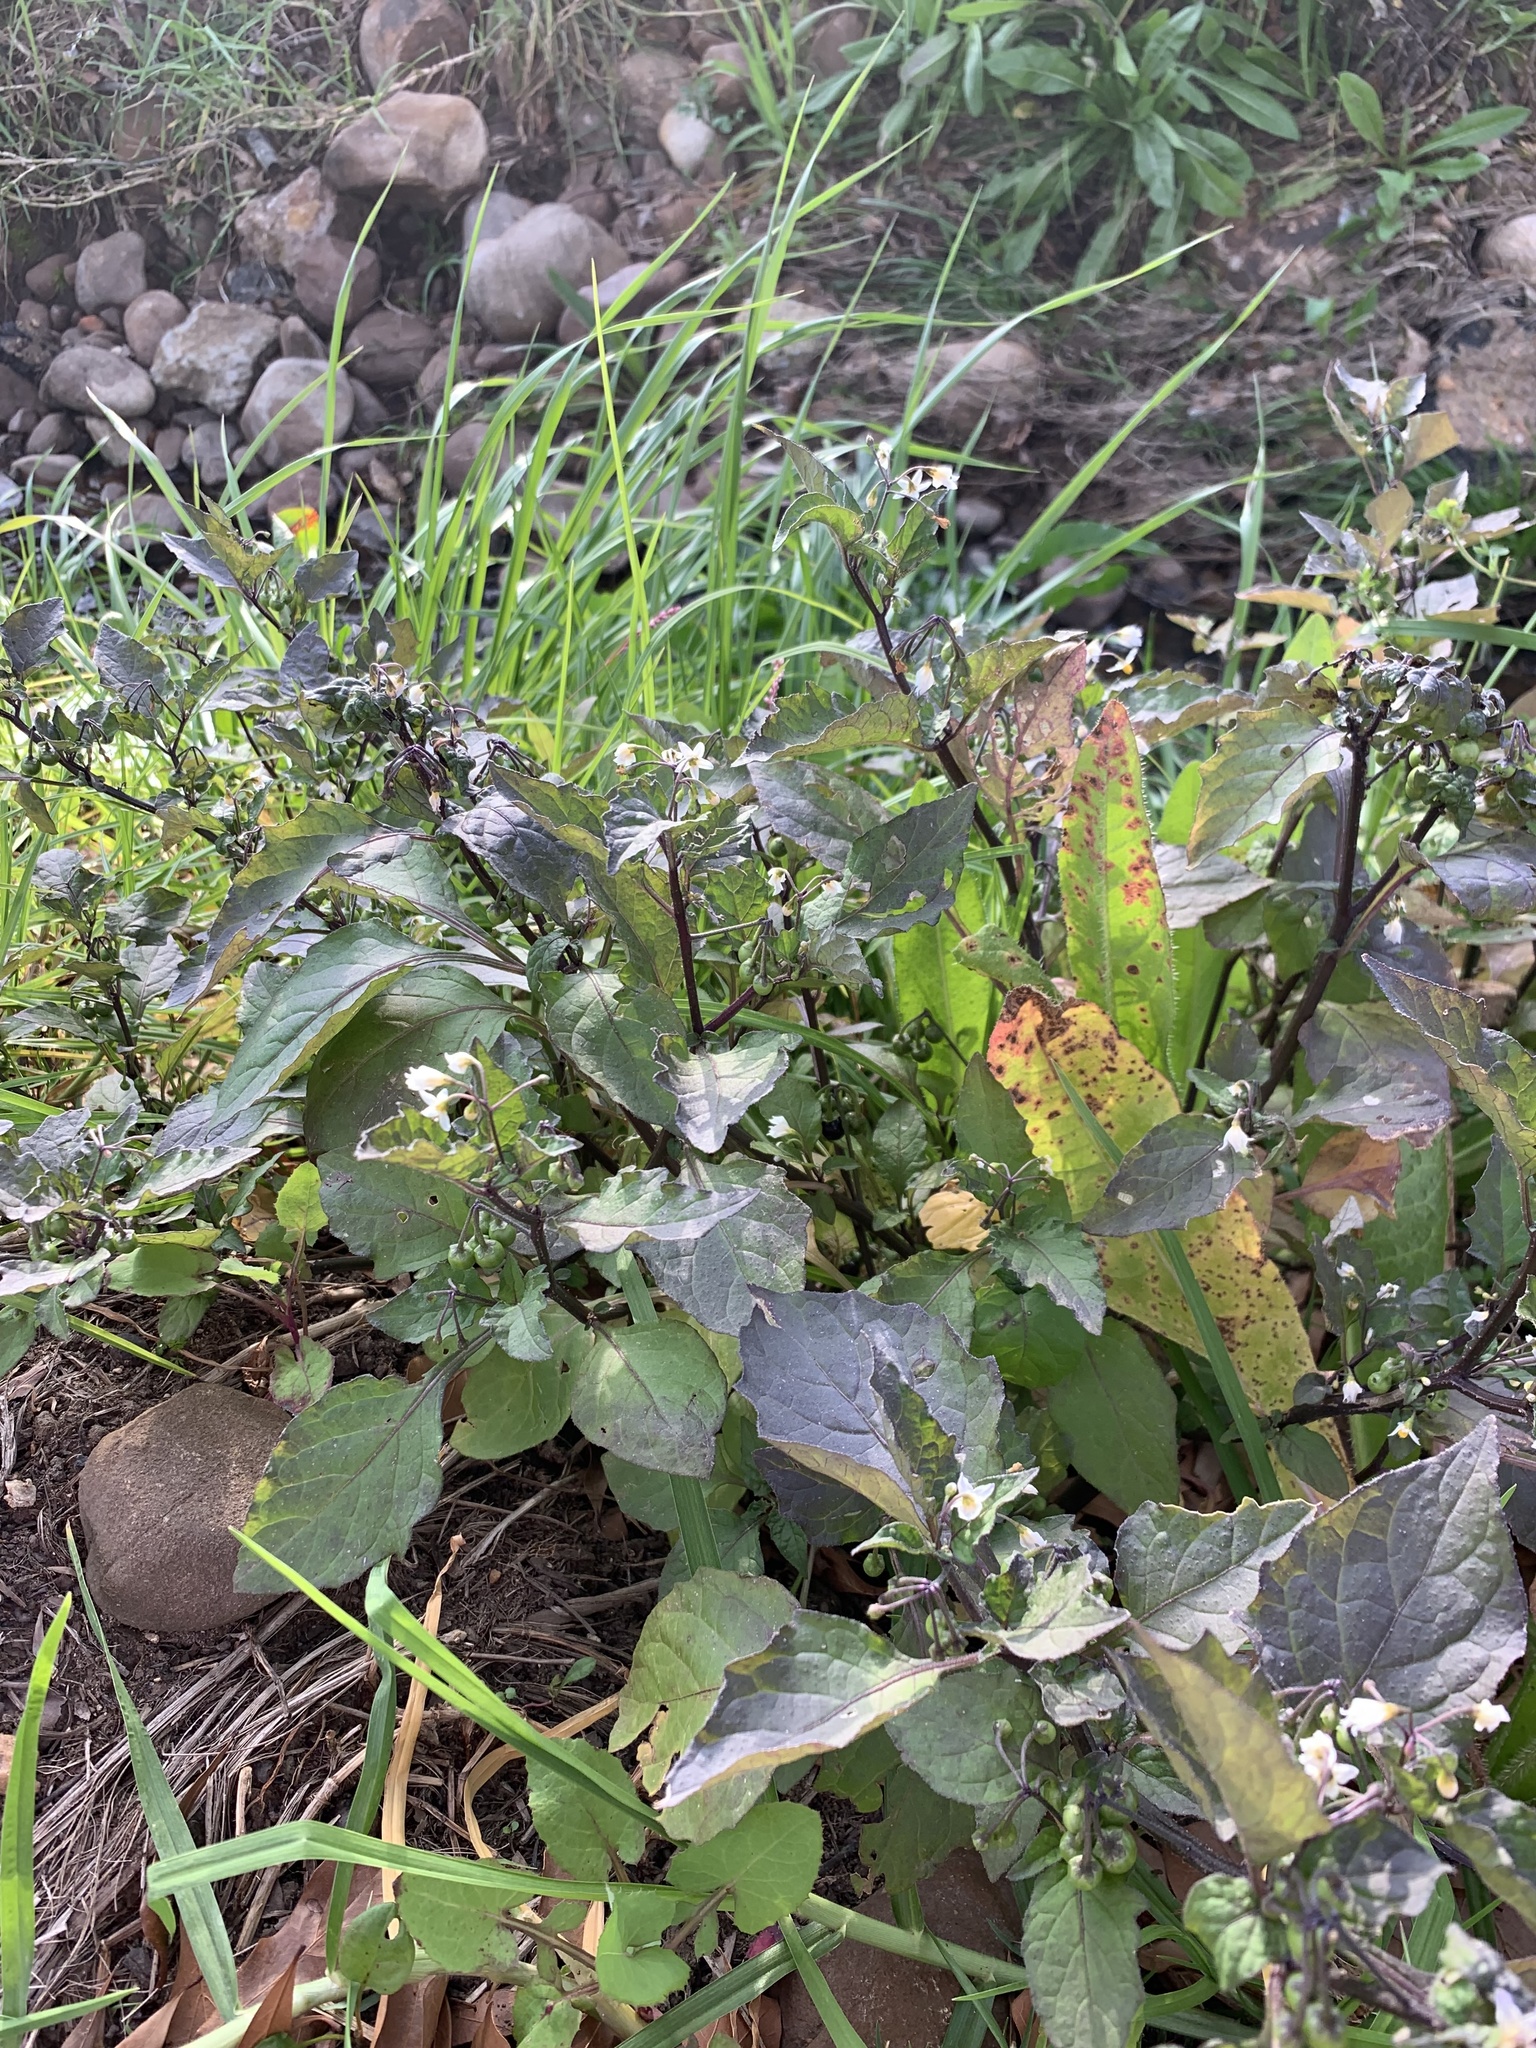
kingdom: Plantae
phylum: Tracheophyta
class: Magnoliopsida
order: Solanales
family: Solanaceae
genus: Solanum
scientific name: Solanum nigrum
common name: Black nightshade
